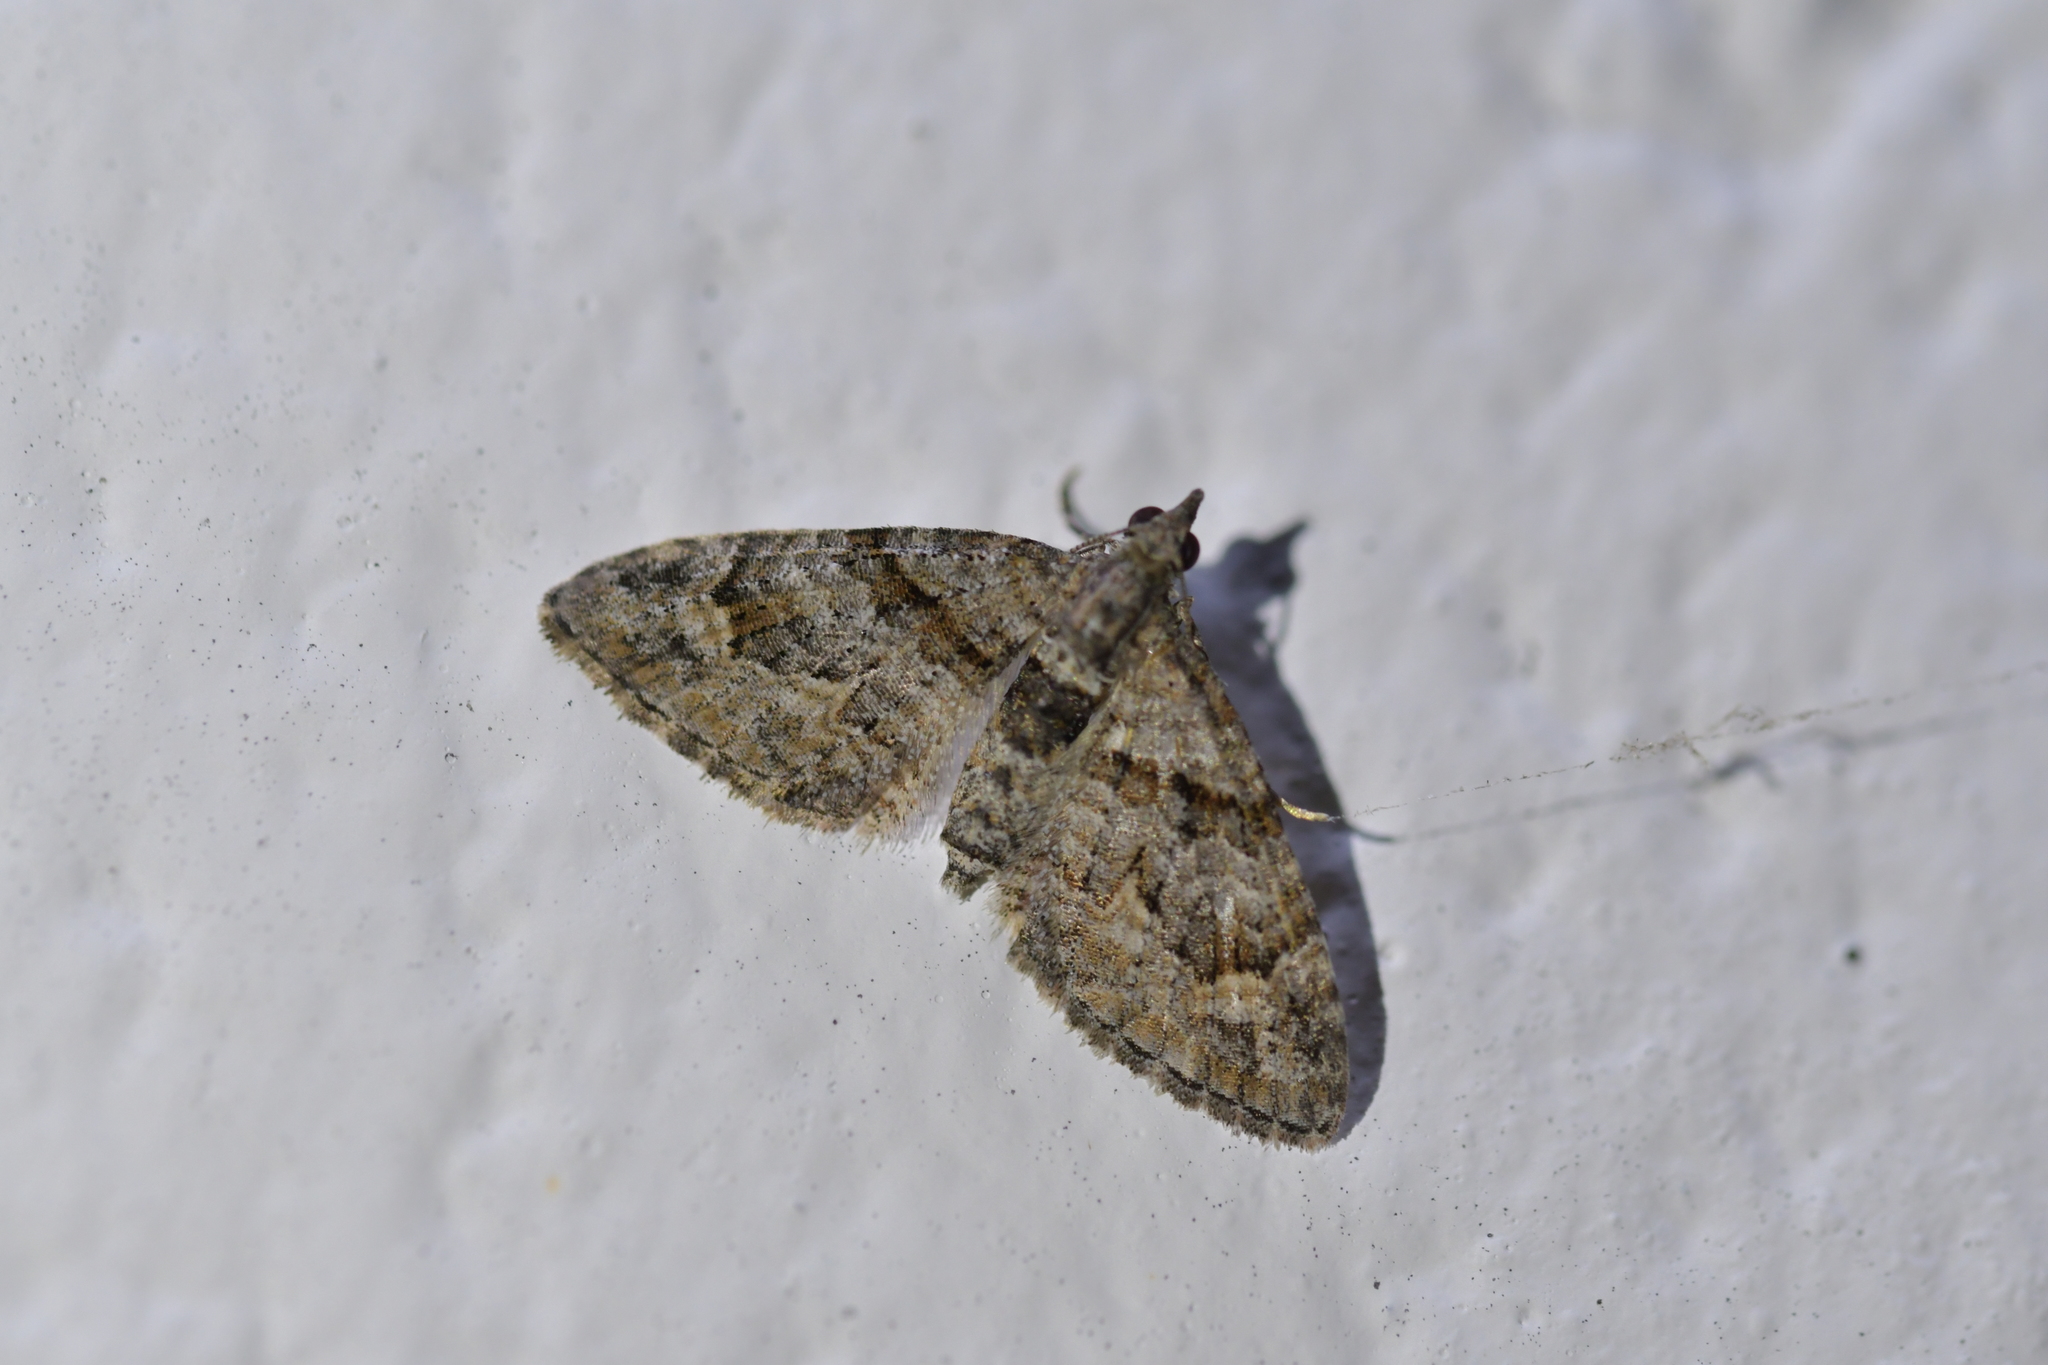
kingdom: Animalia
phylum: Arthropoda
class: Insecta
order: Lepidoptera
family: Geometridae
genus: Phrissogonus
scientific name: Phrissogonus laticostata
